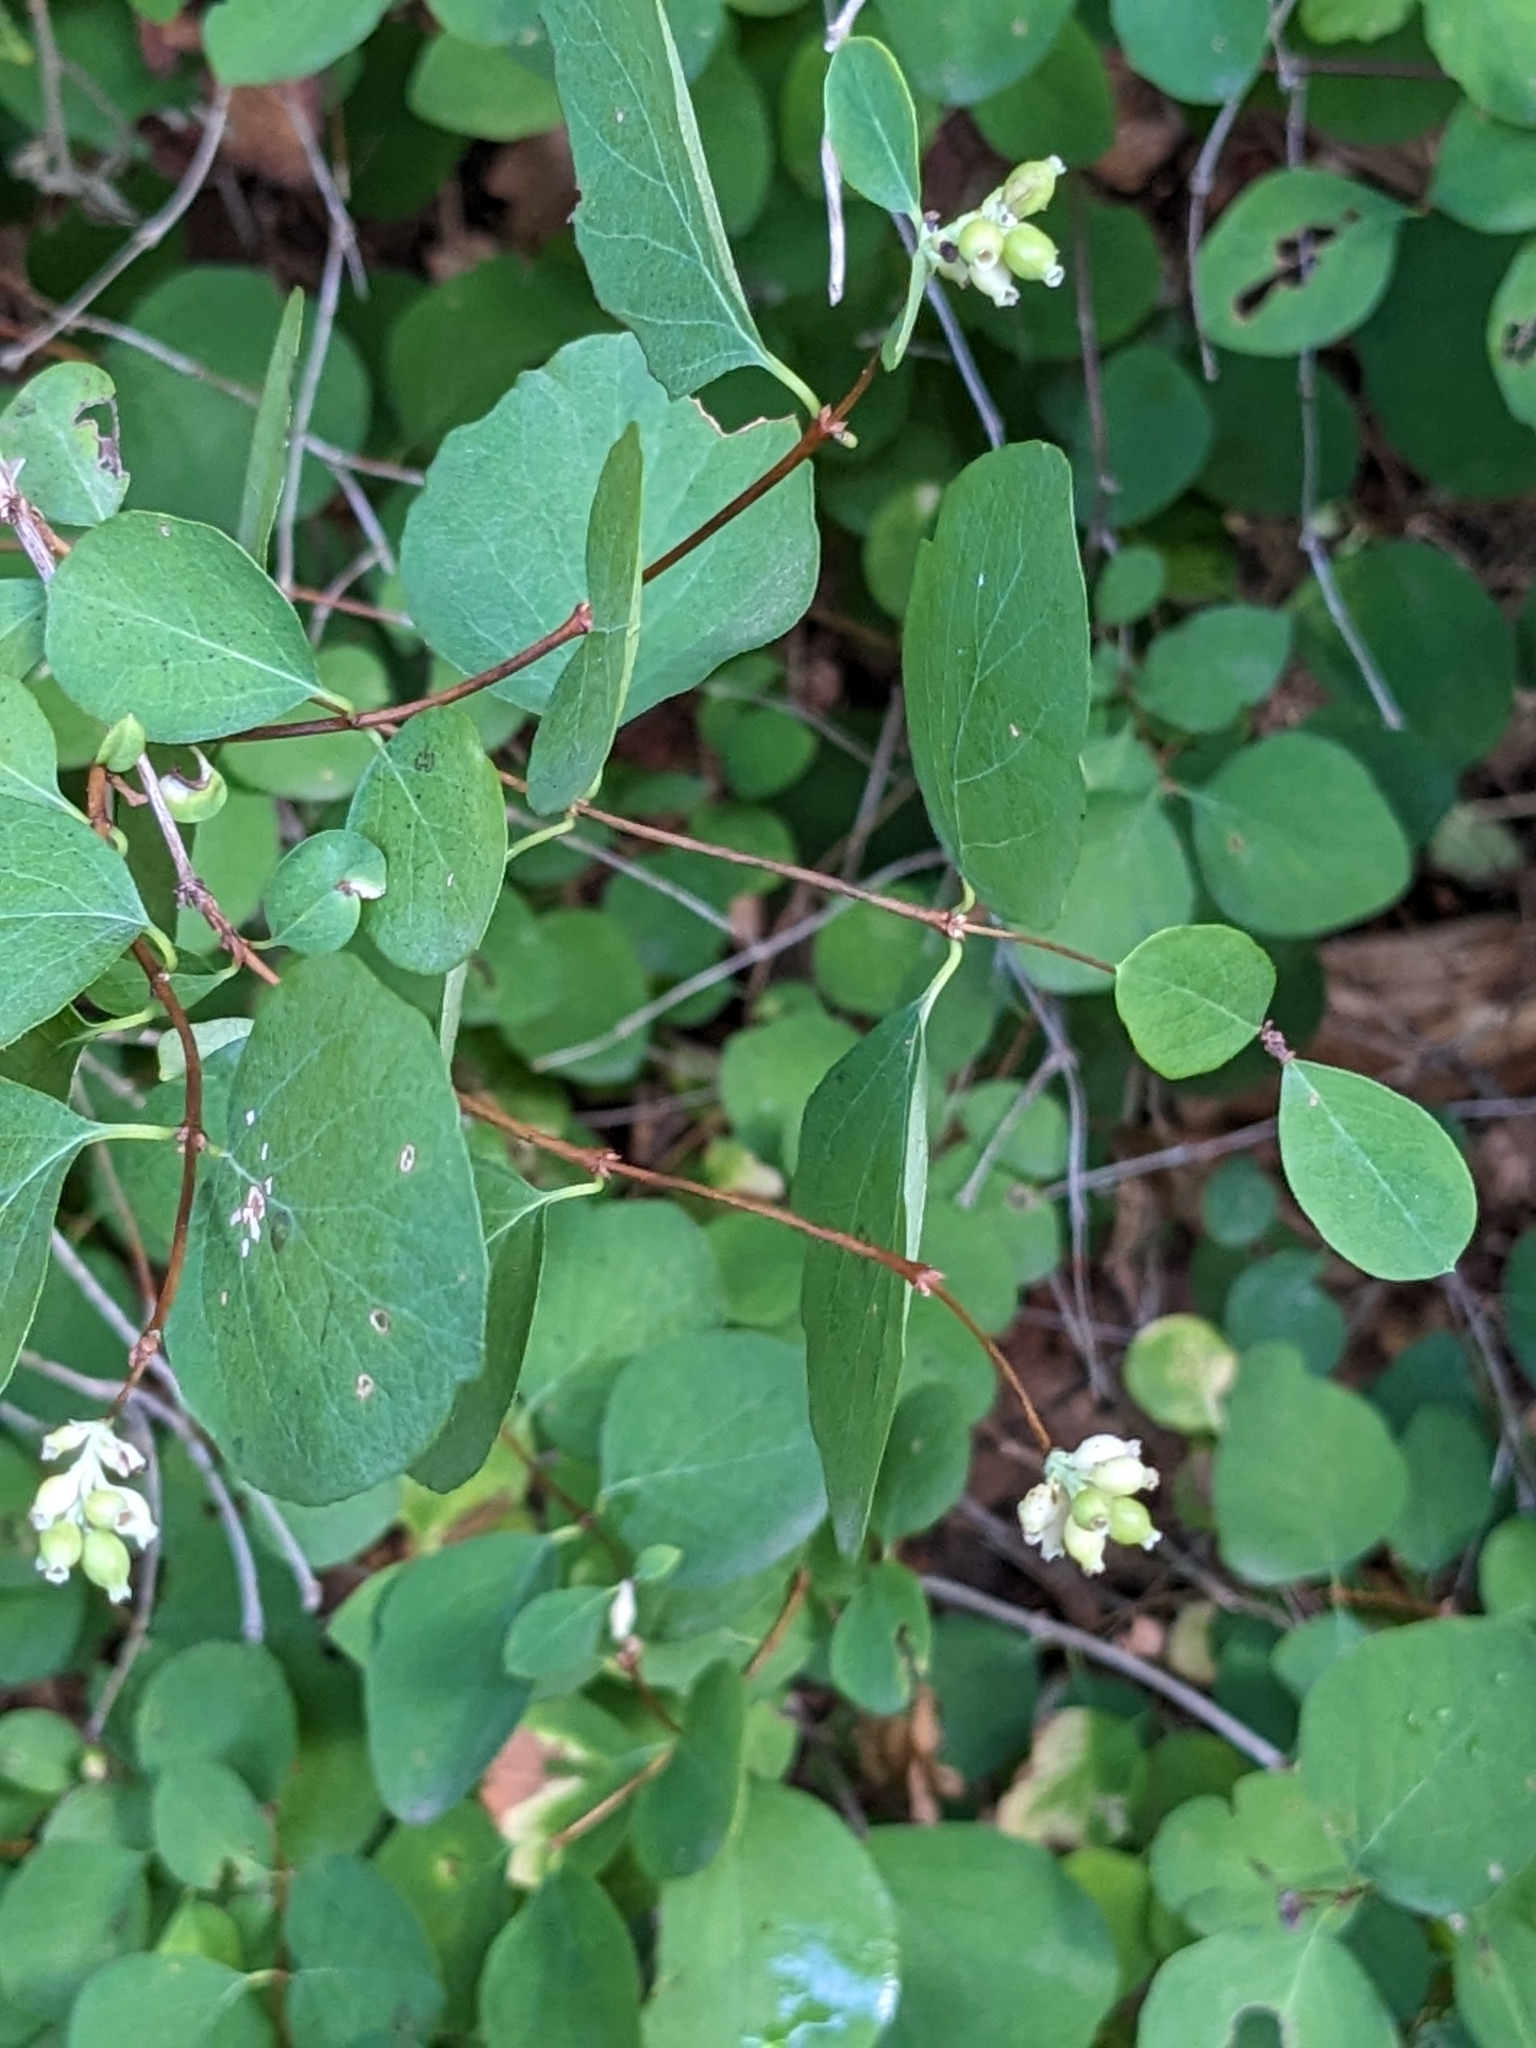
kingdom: Plantae
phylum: Tracheophyta
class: Magnoliopsida
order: Dipsacales
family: Caprifoliaceae
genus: Symphoricarpos
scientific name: Symphoricarpos albus
